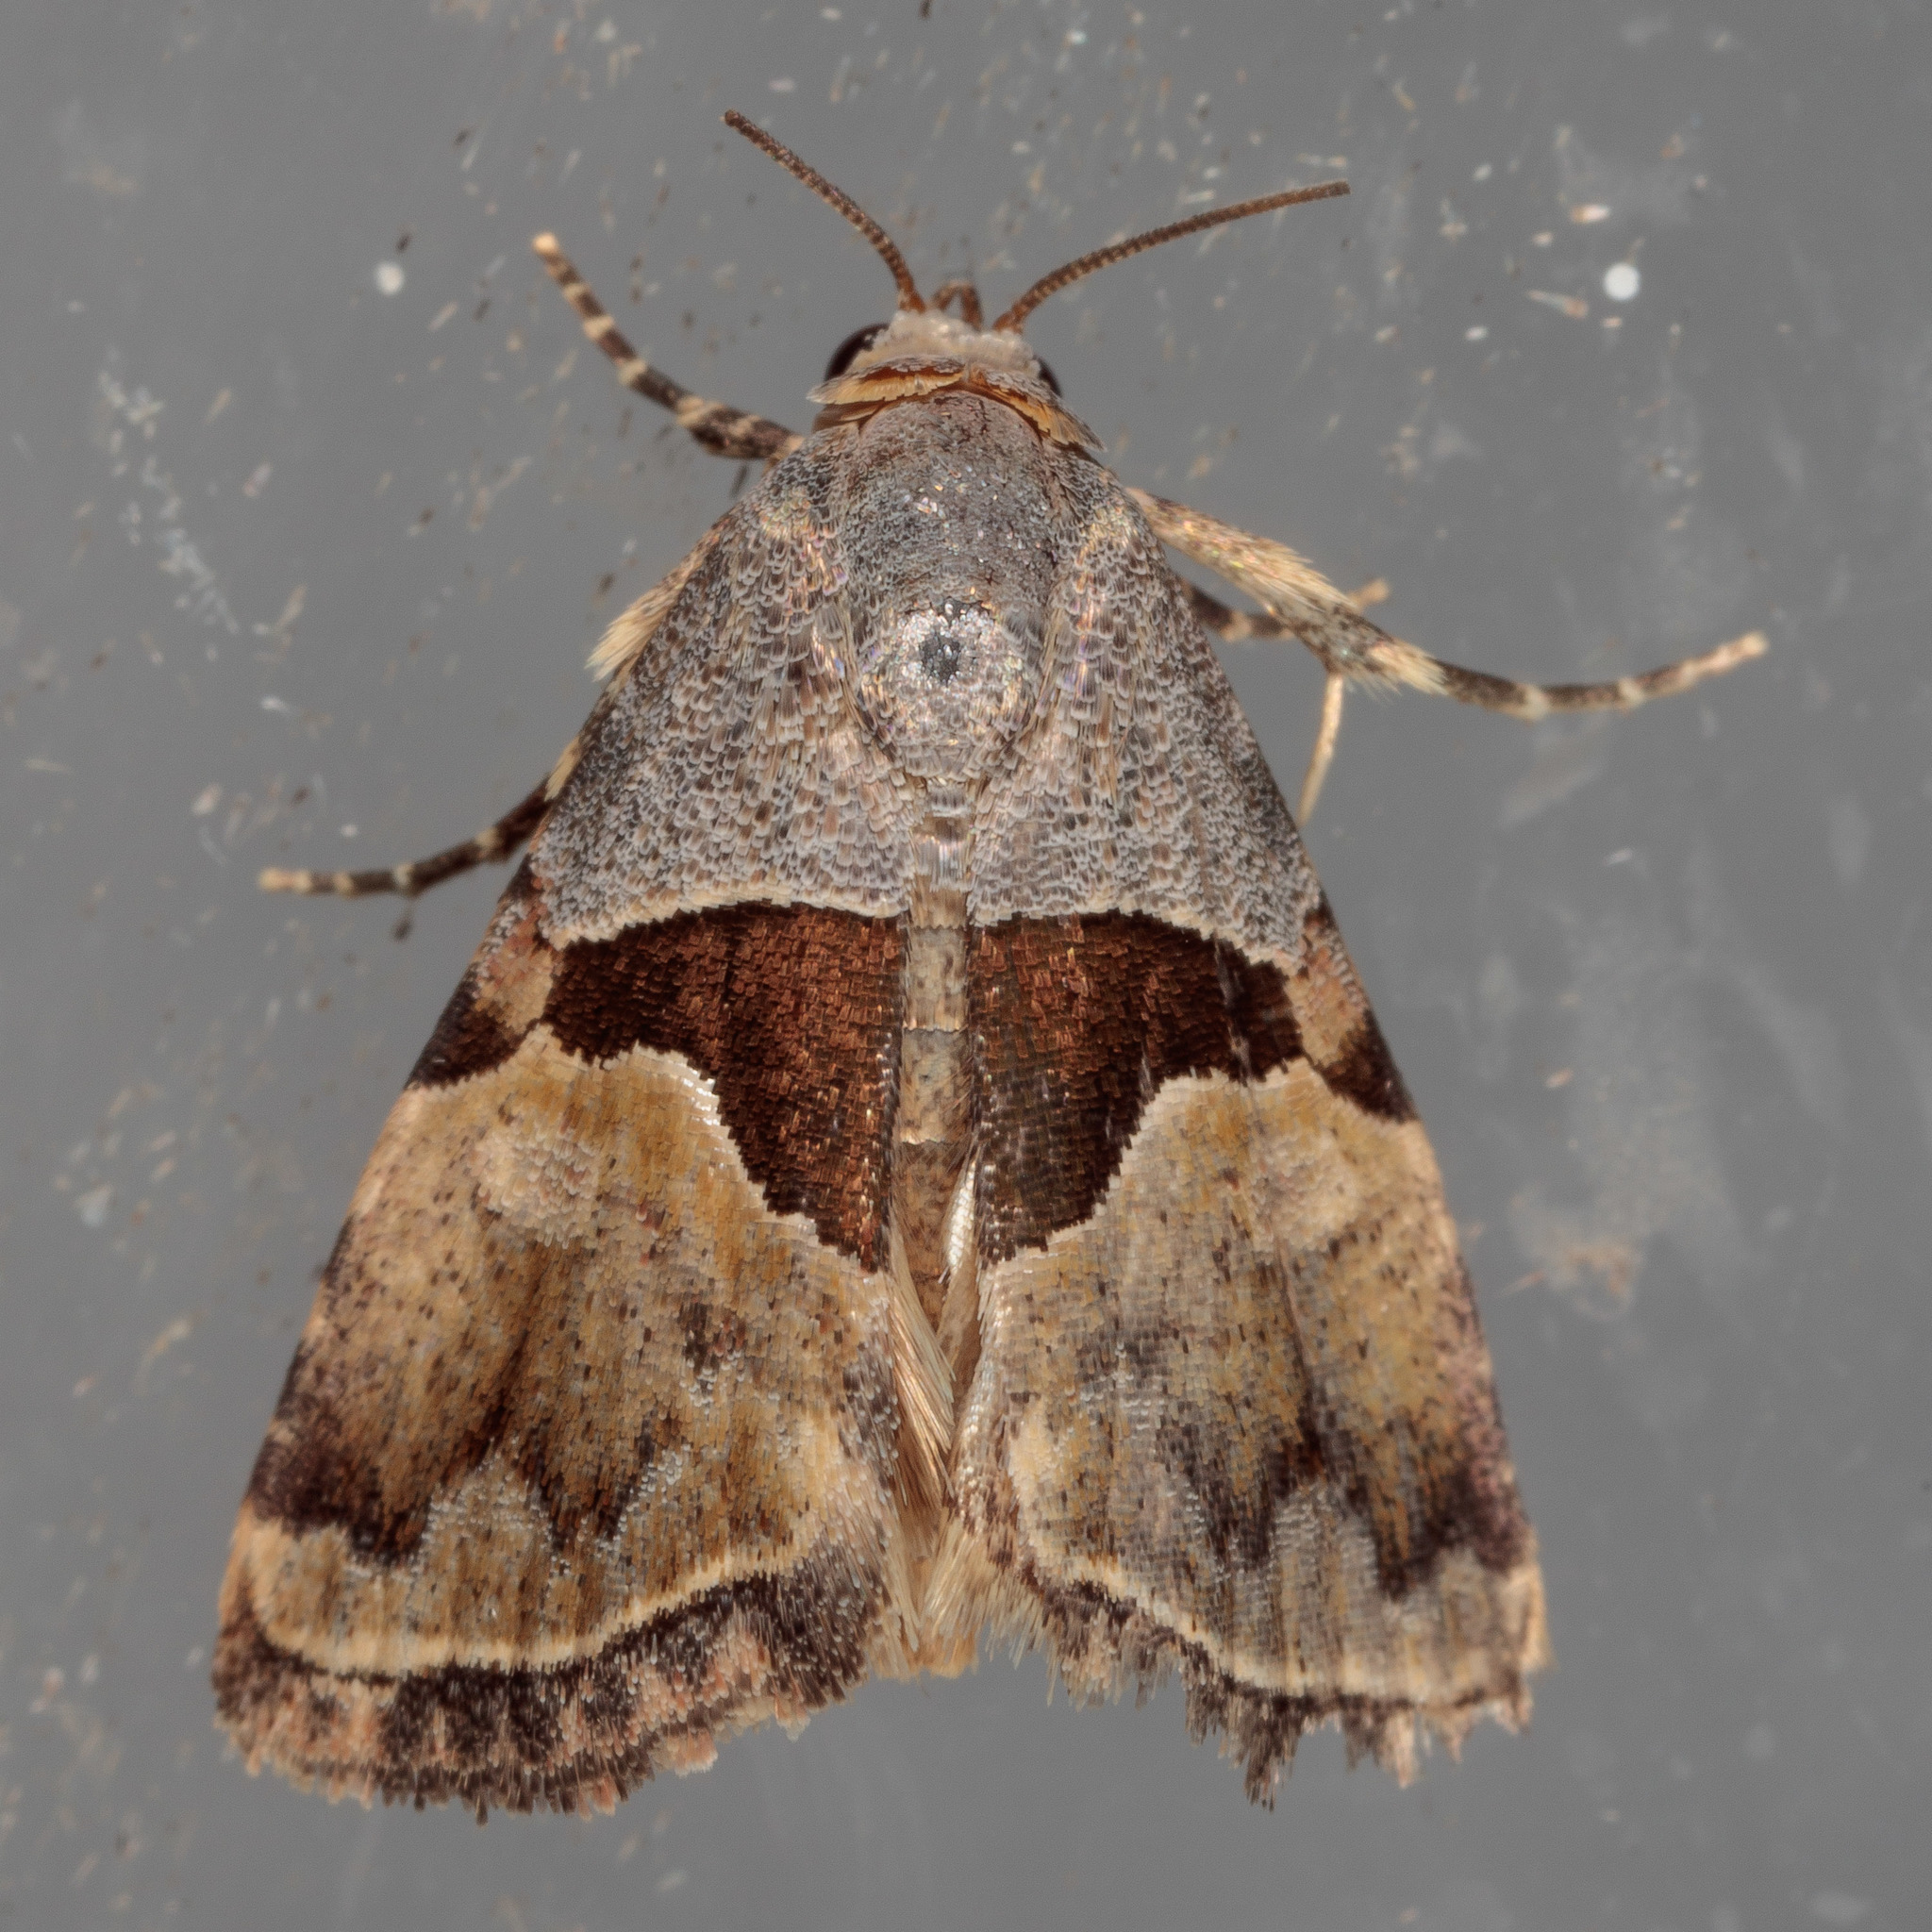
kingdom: Animalia
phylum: Arthropoda
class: Insecta
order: Lepidoptera
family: Noctuidae
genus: Cobubatha
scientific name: Cobubatha lixiva
